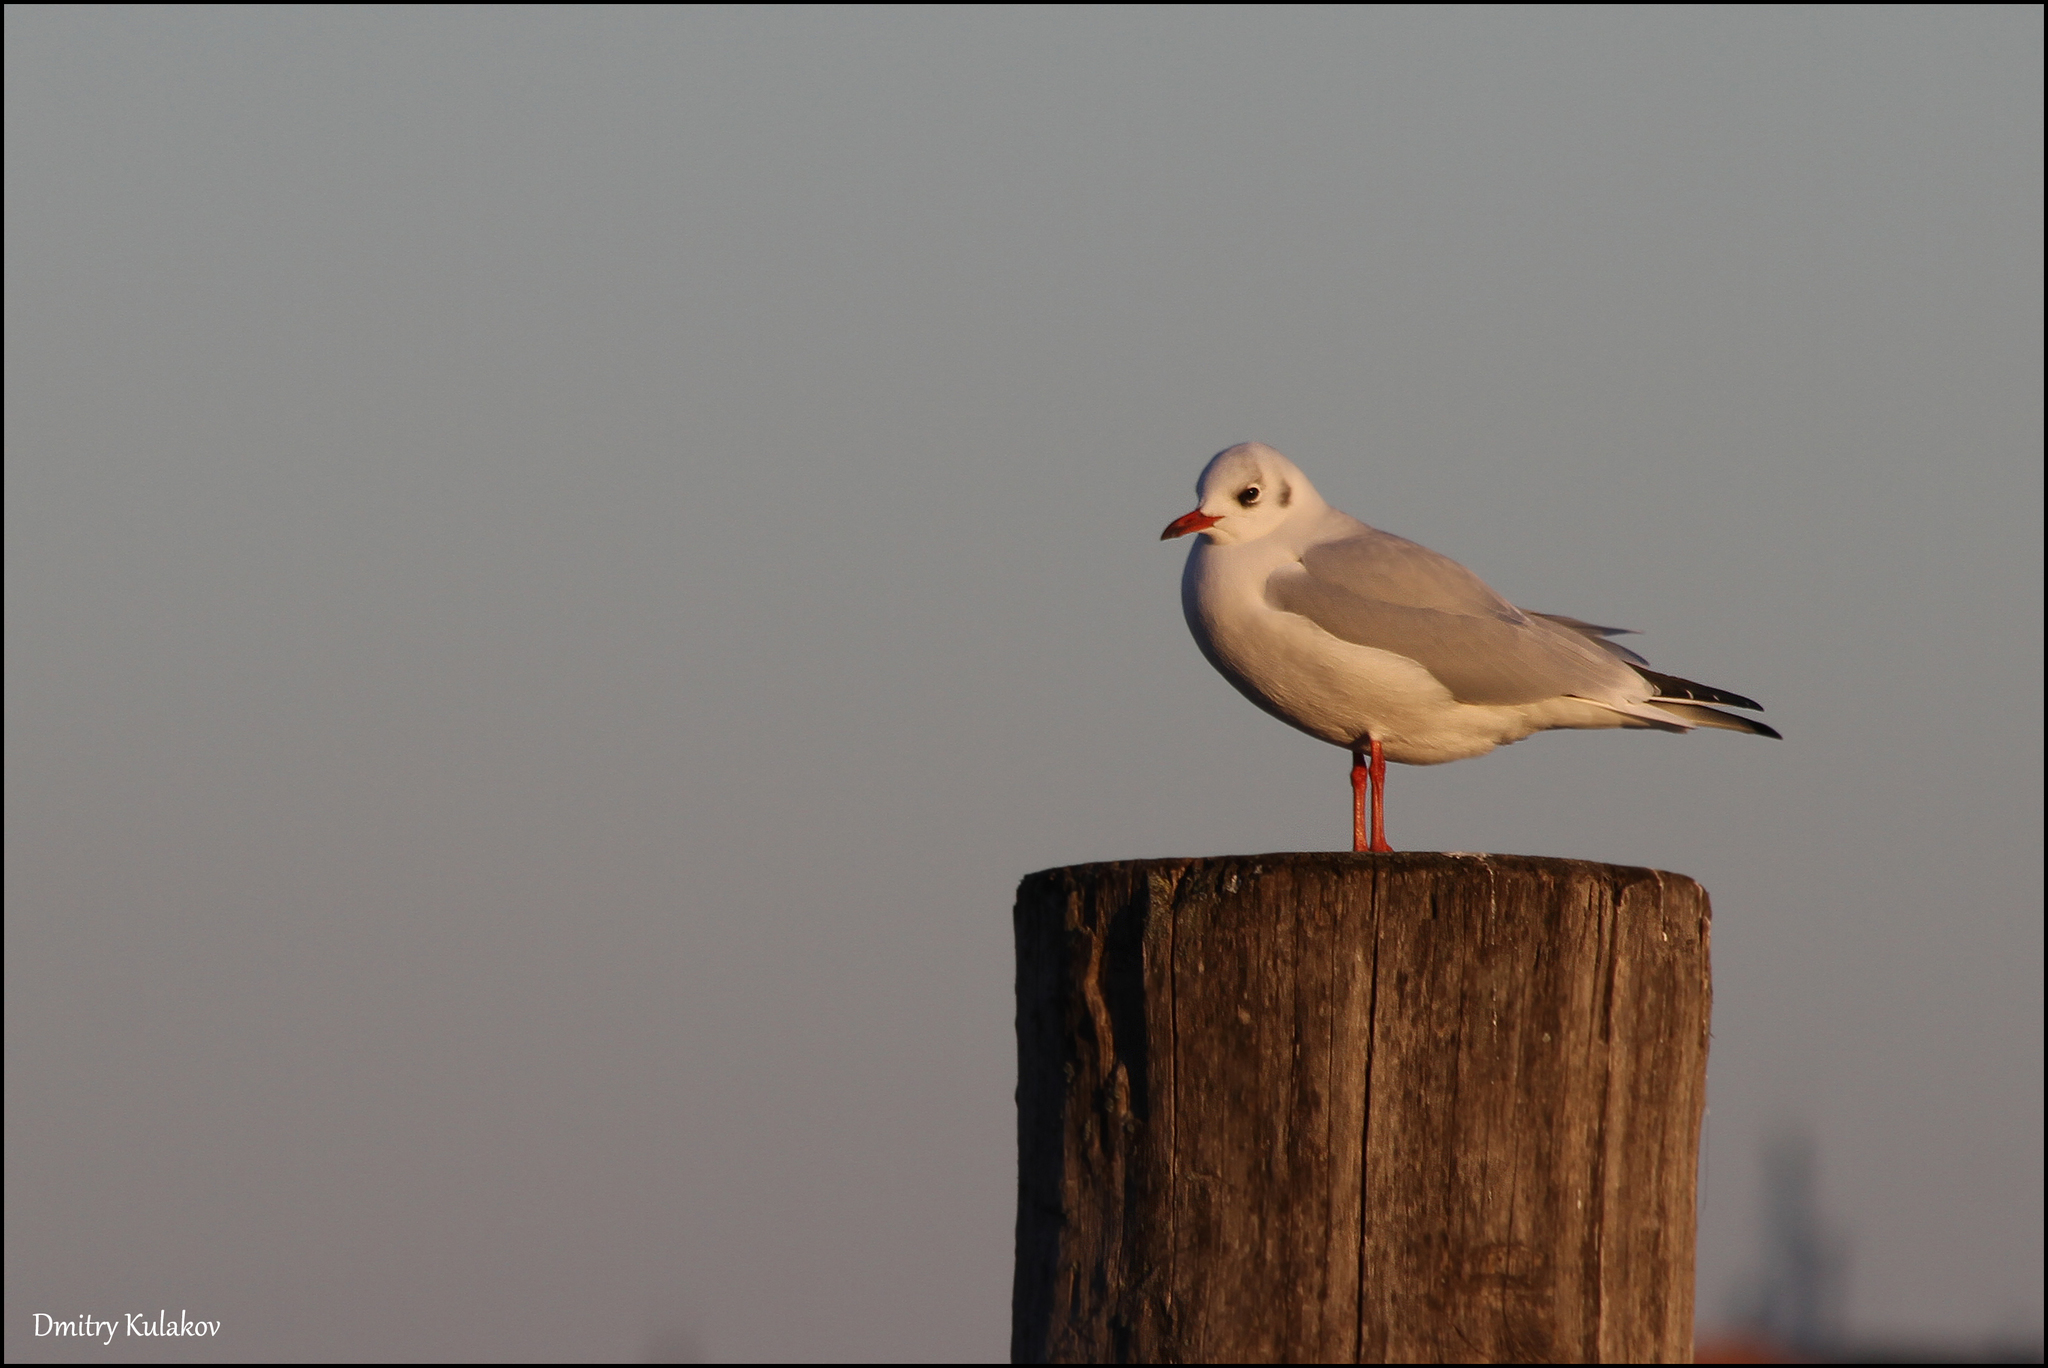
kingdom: Animalia
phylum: Chordata
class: Aves
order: Charadriiformes
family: Laridae
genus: Chroicocephalus
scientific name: Chroicocephalus ridibundus
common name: Black-headed gull
